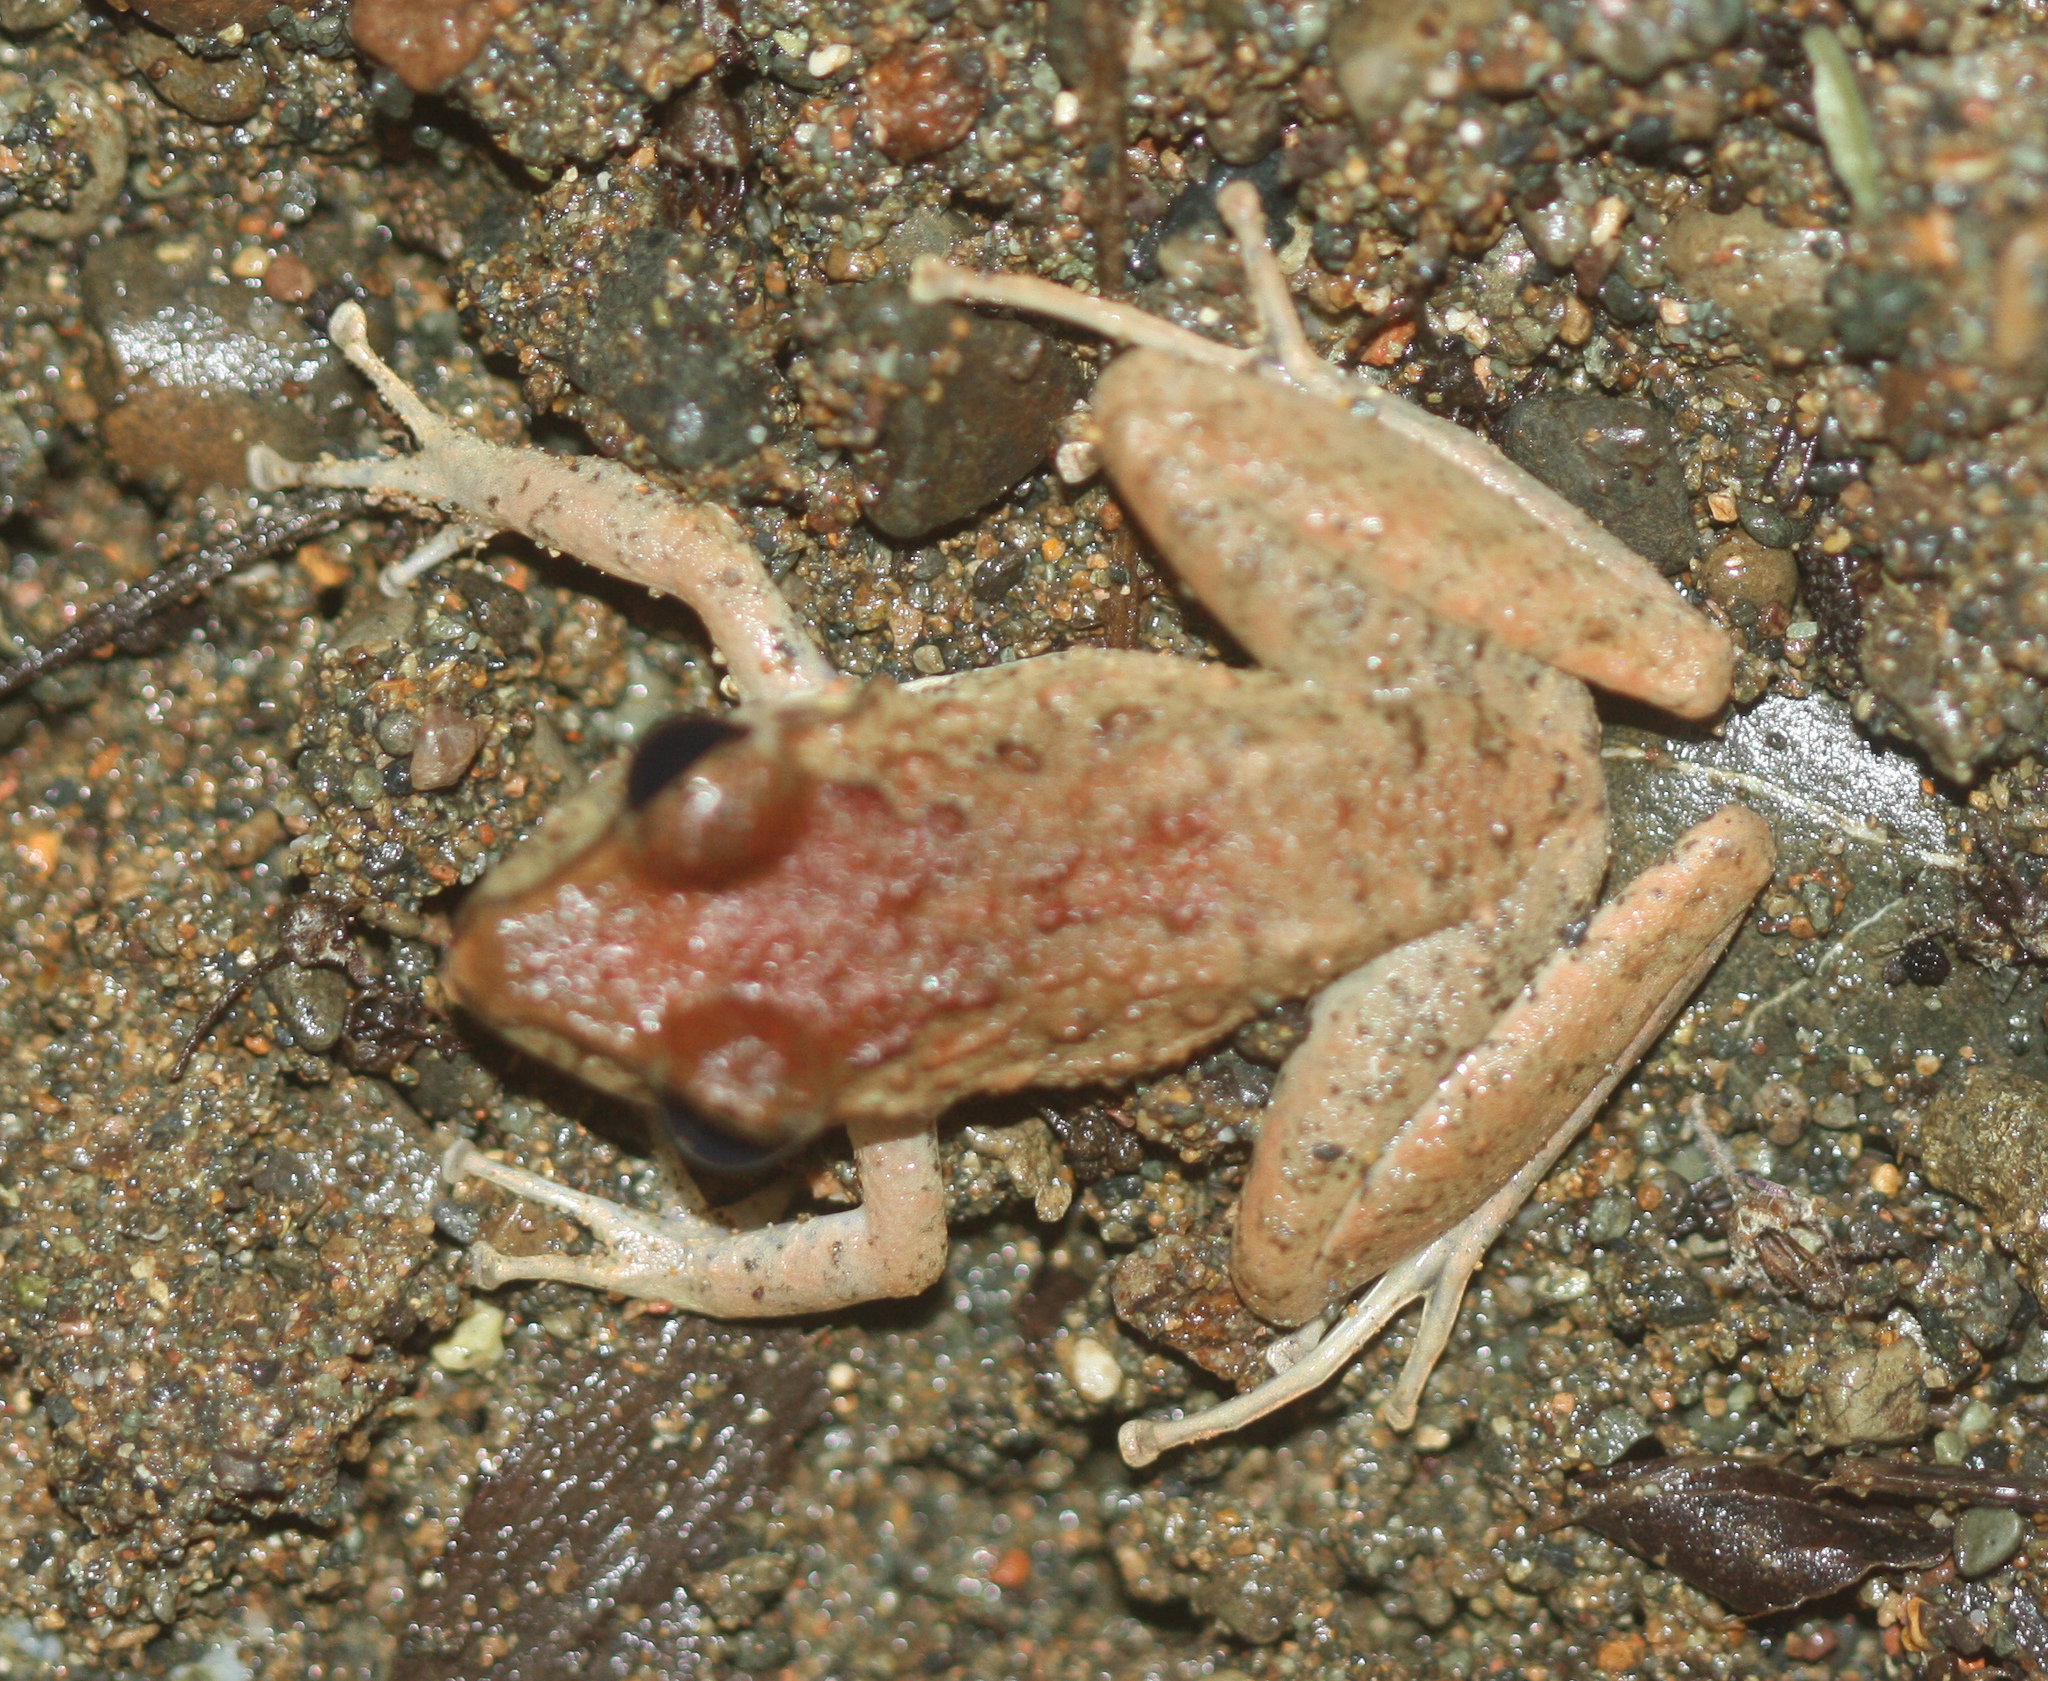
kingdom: Animalia
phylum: Chordata
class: Amphibia
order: Anura
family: Craugastoridae
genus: Craugastor
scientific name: Craugastor
